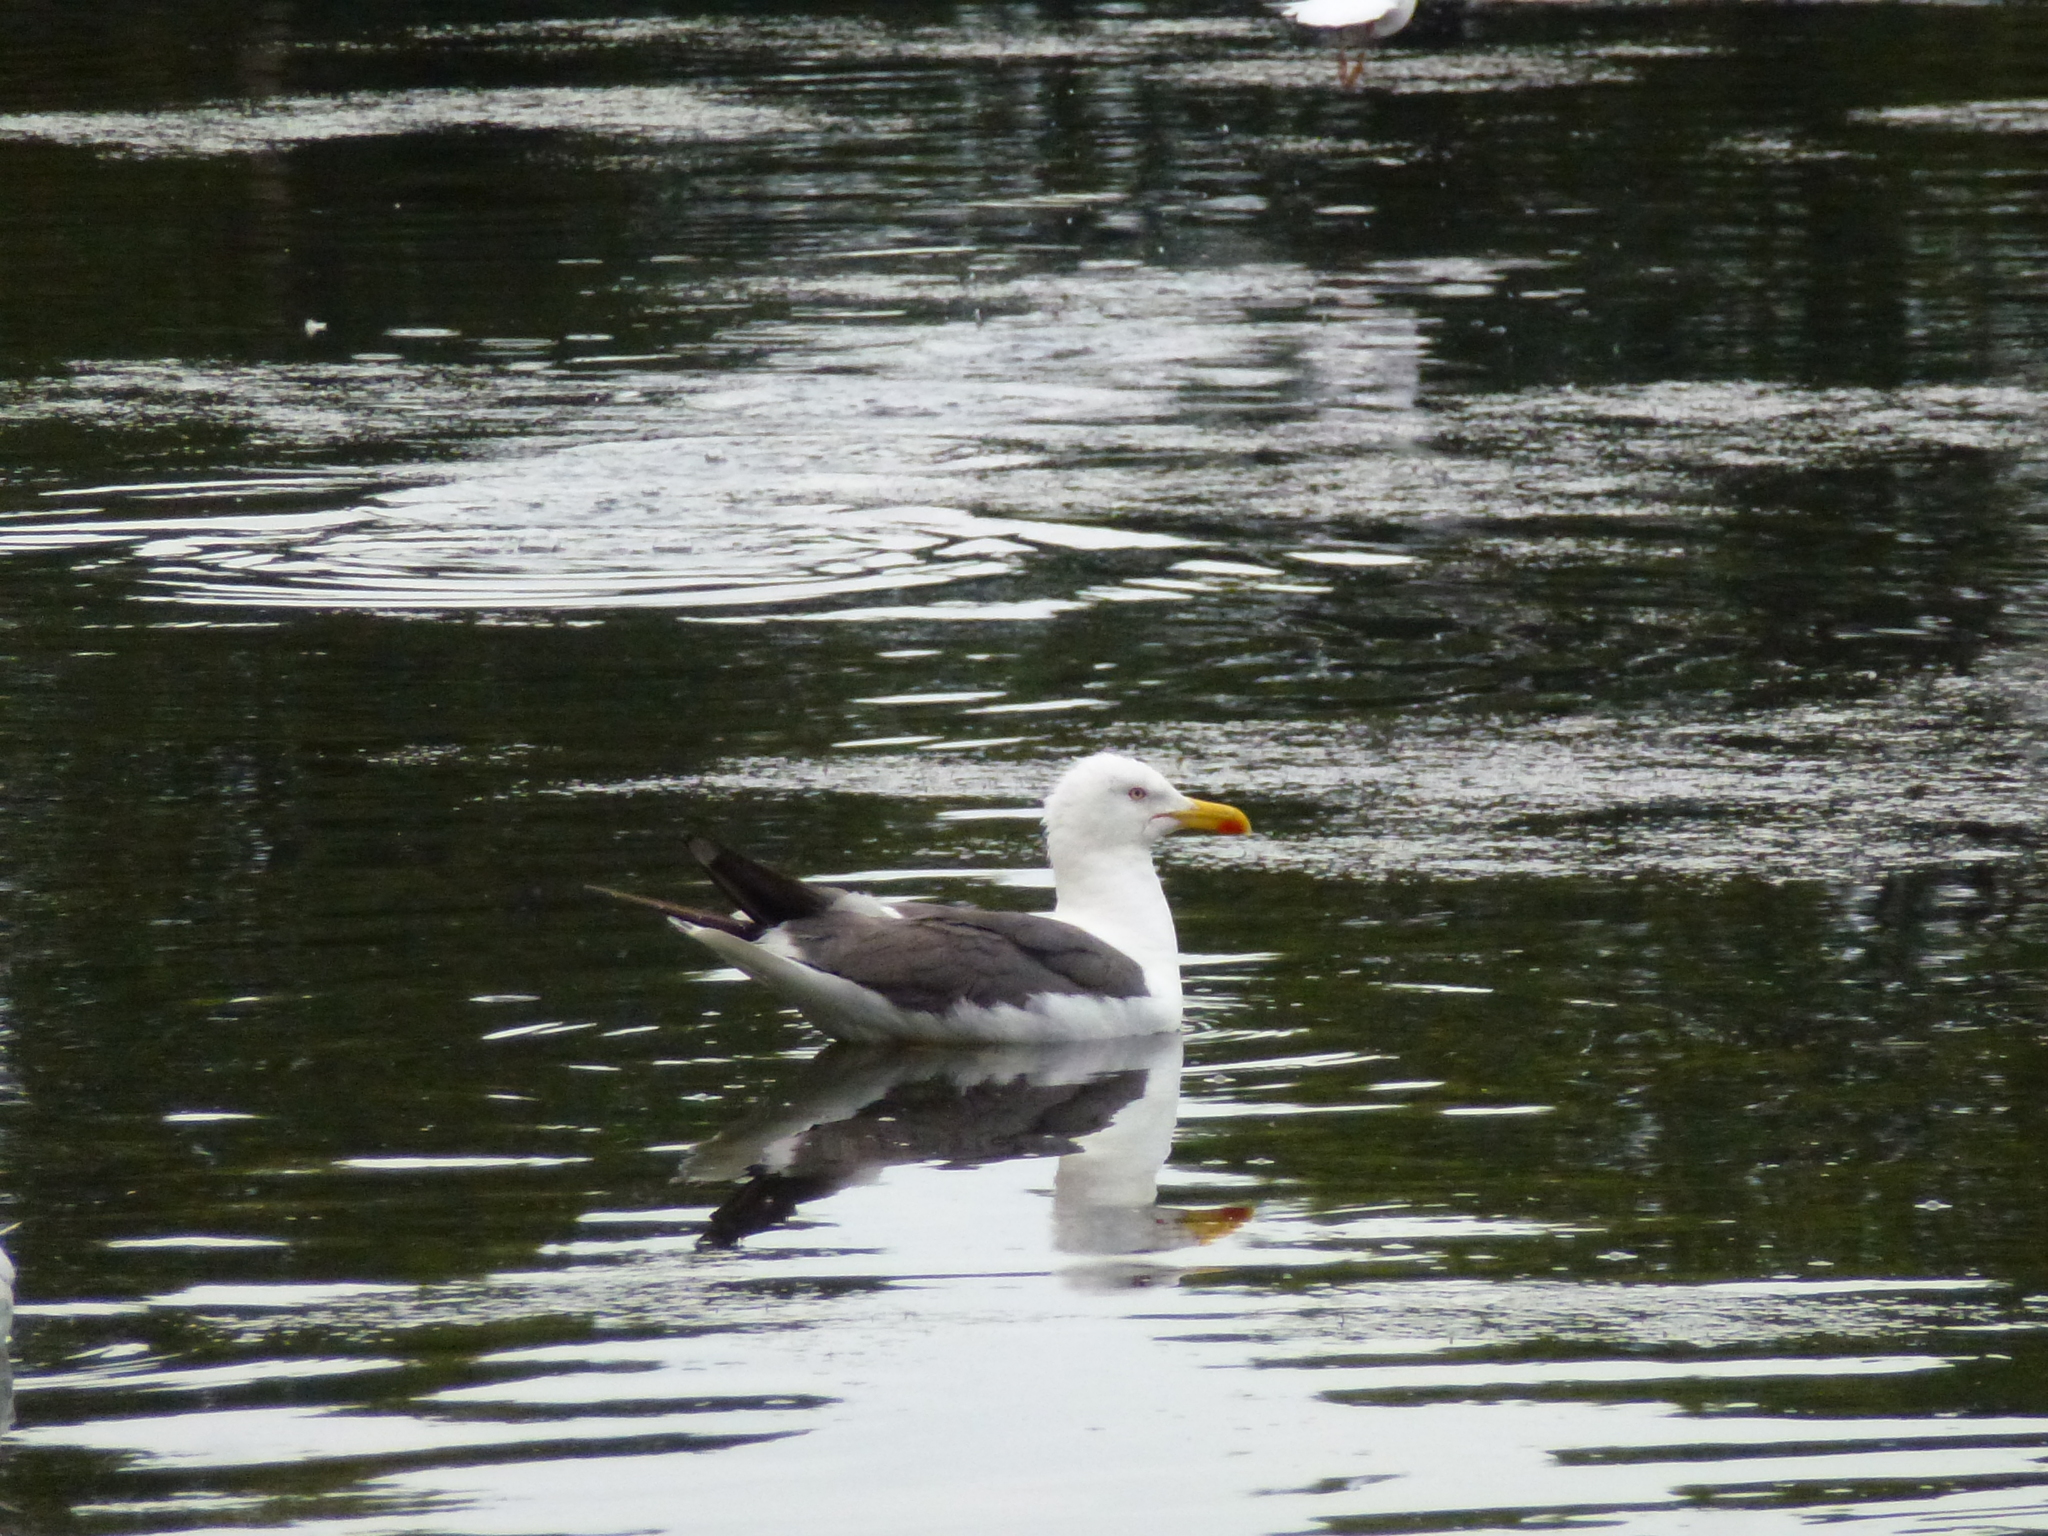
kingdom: Animalia
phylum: Chordata
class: Aves
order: Charadriiformes
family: Laridae
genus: Larus
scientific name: Larus fuscus
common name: Lesser black-backed gull
